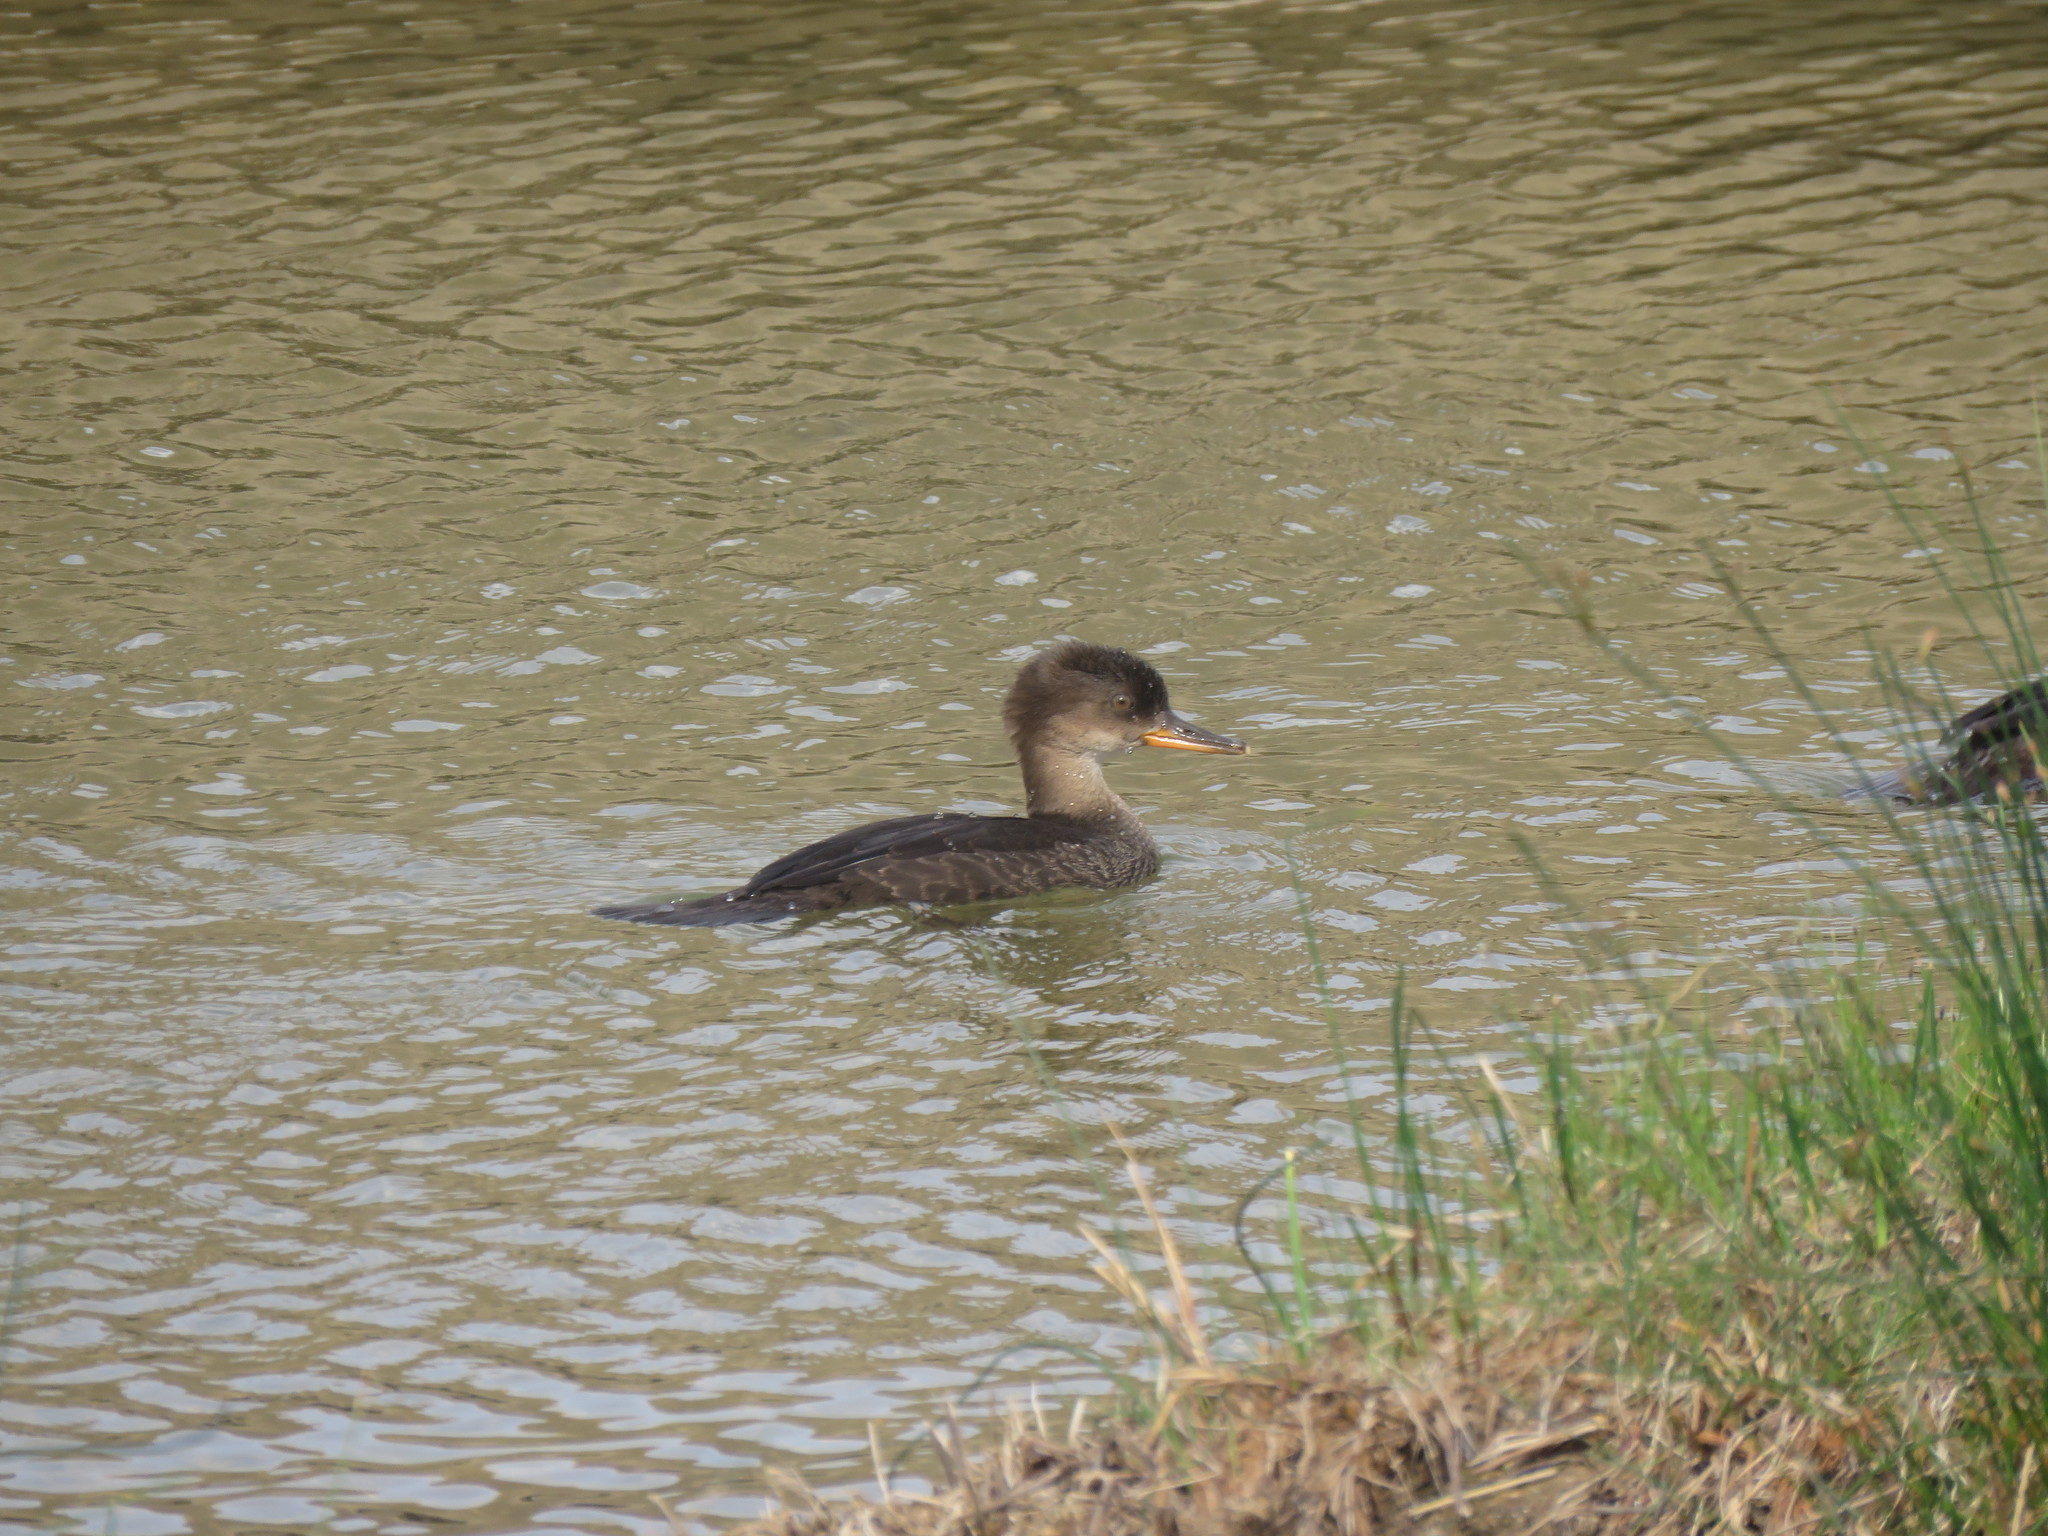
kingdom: Animalia
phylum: Chordata
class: Aves
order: Anseriformes
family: Anatidae
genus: Lophodytes
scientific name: Lophodytes cucullatus
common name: Hooded merganser
